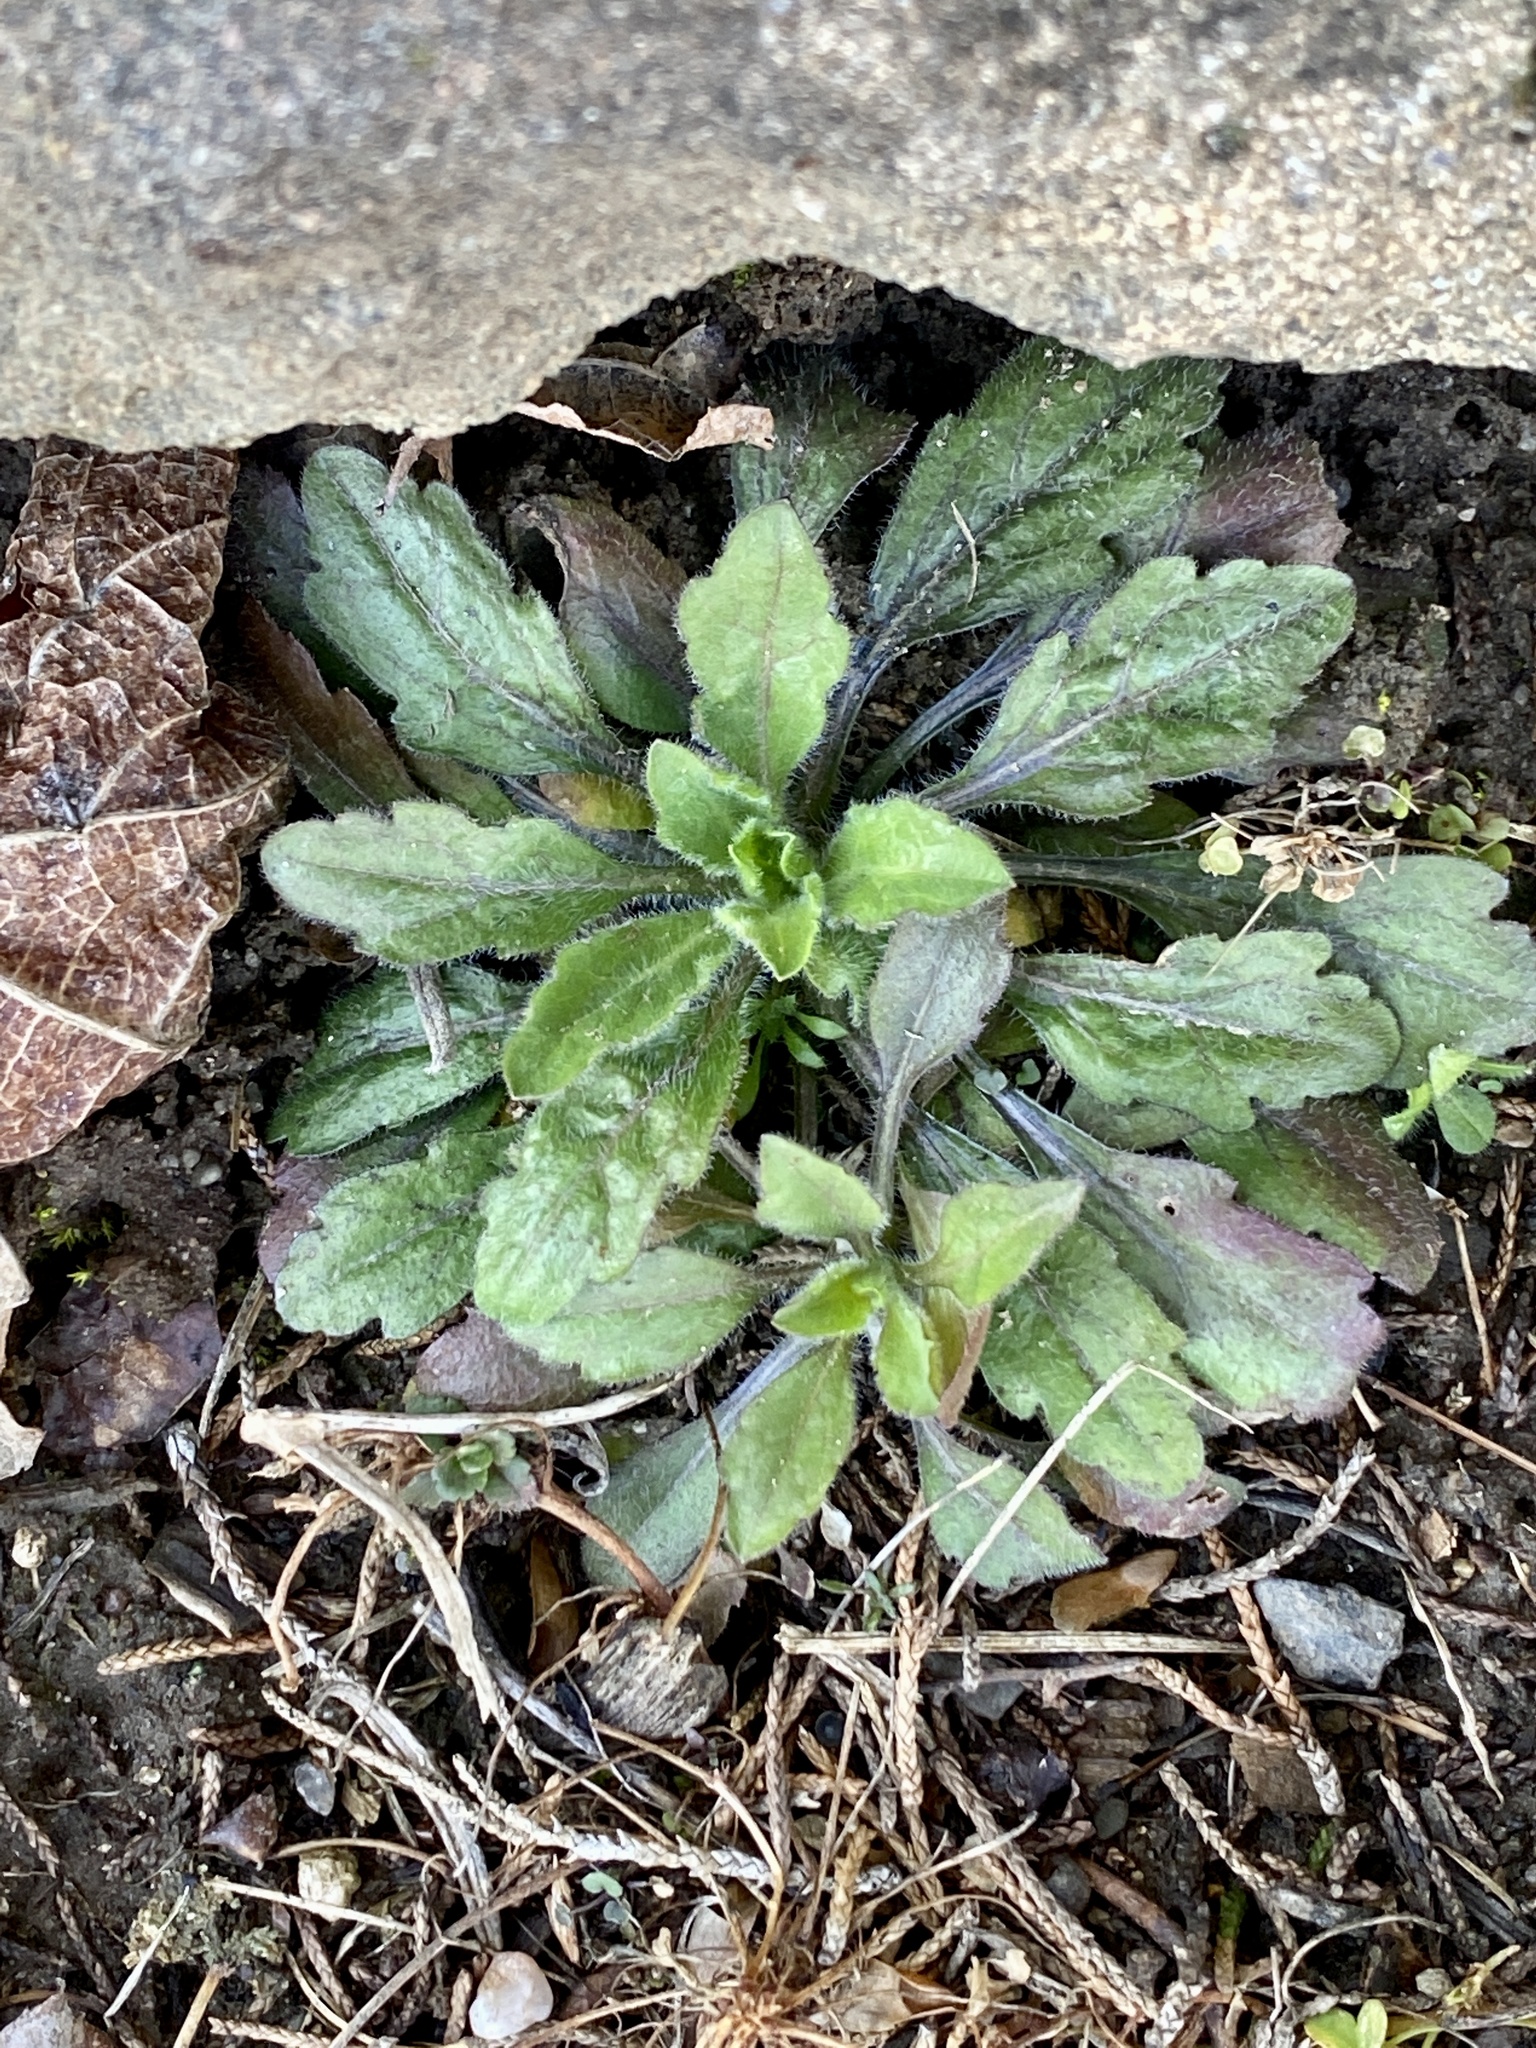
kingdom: Plantae
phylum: Tracheophyta
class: Magnoliopsida
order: Asterales
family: Asteraceae
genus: Erigeron
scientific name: Erigeron canadensis
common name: Canadian fleabane
